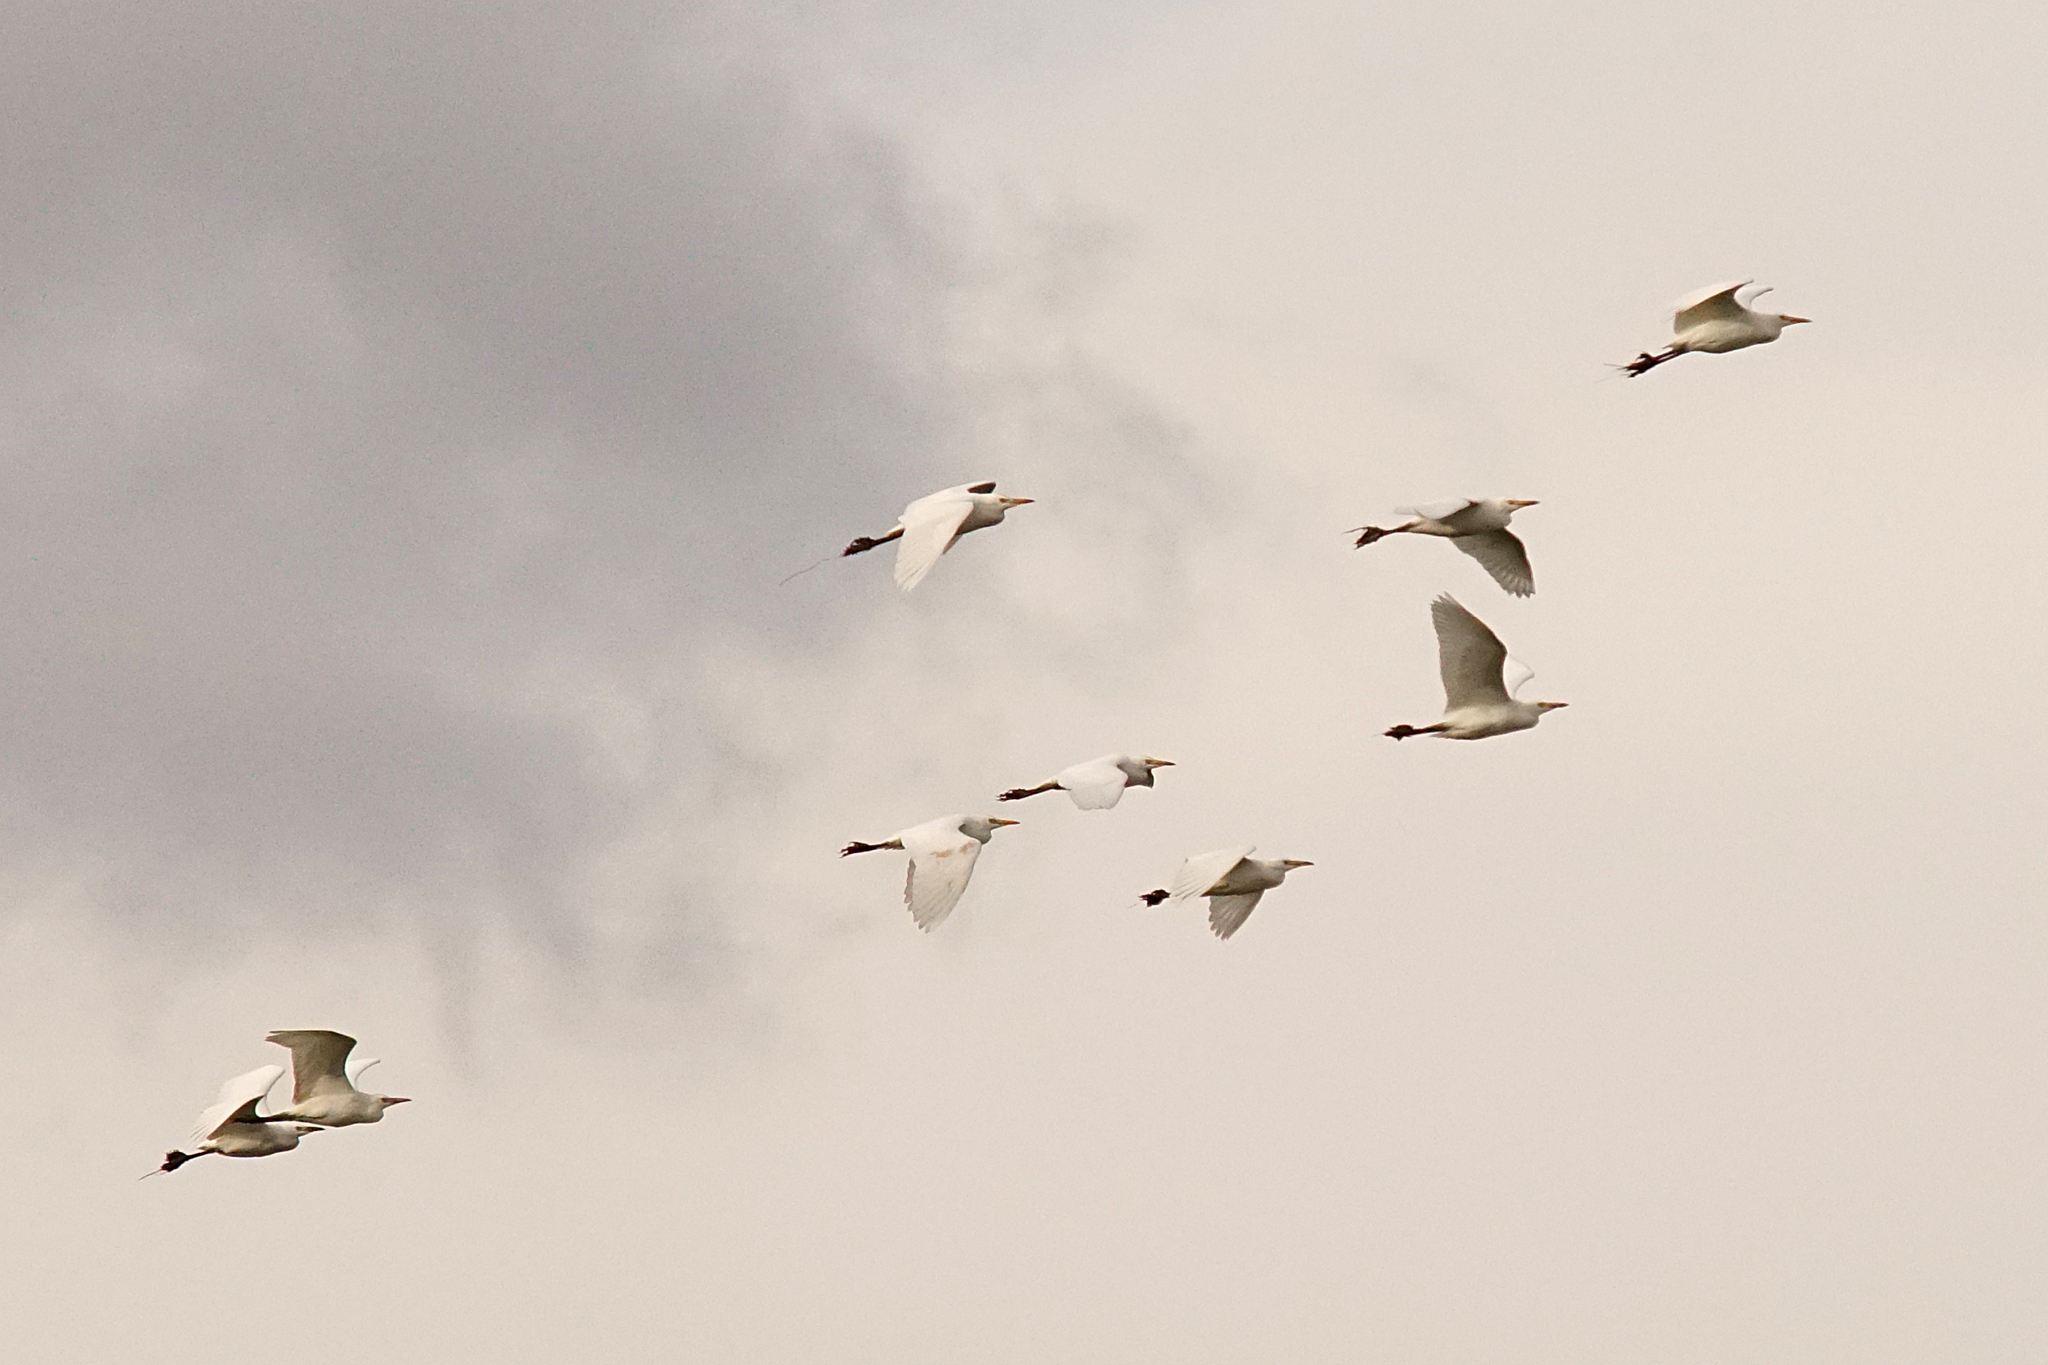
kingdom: Animalia
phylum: Chordata
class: Aves
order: Pelecaniformes
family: Ardeidae
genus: Bubulcus
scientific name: Bubulcus ibis
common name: Cattle egret
